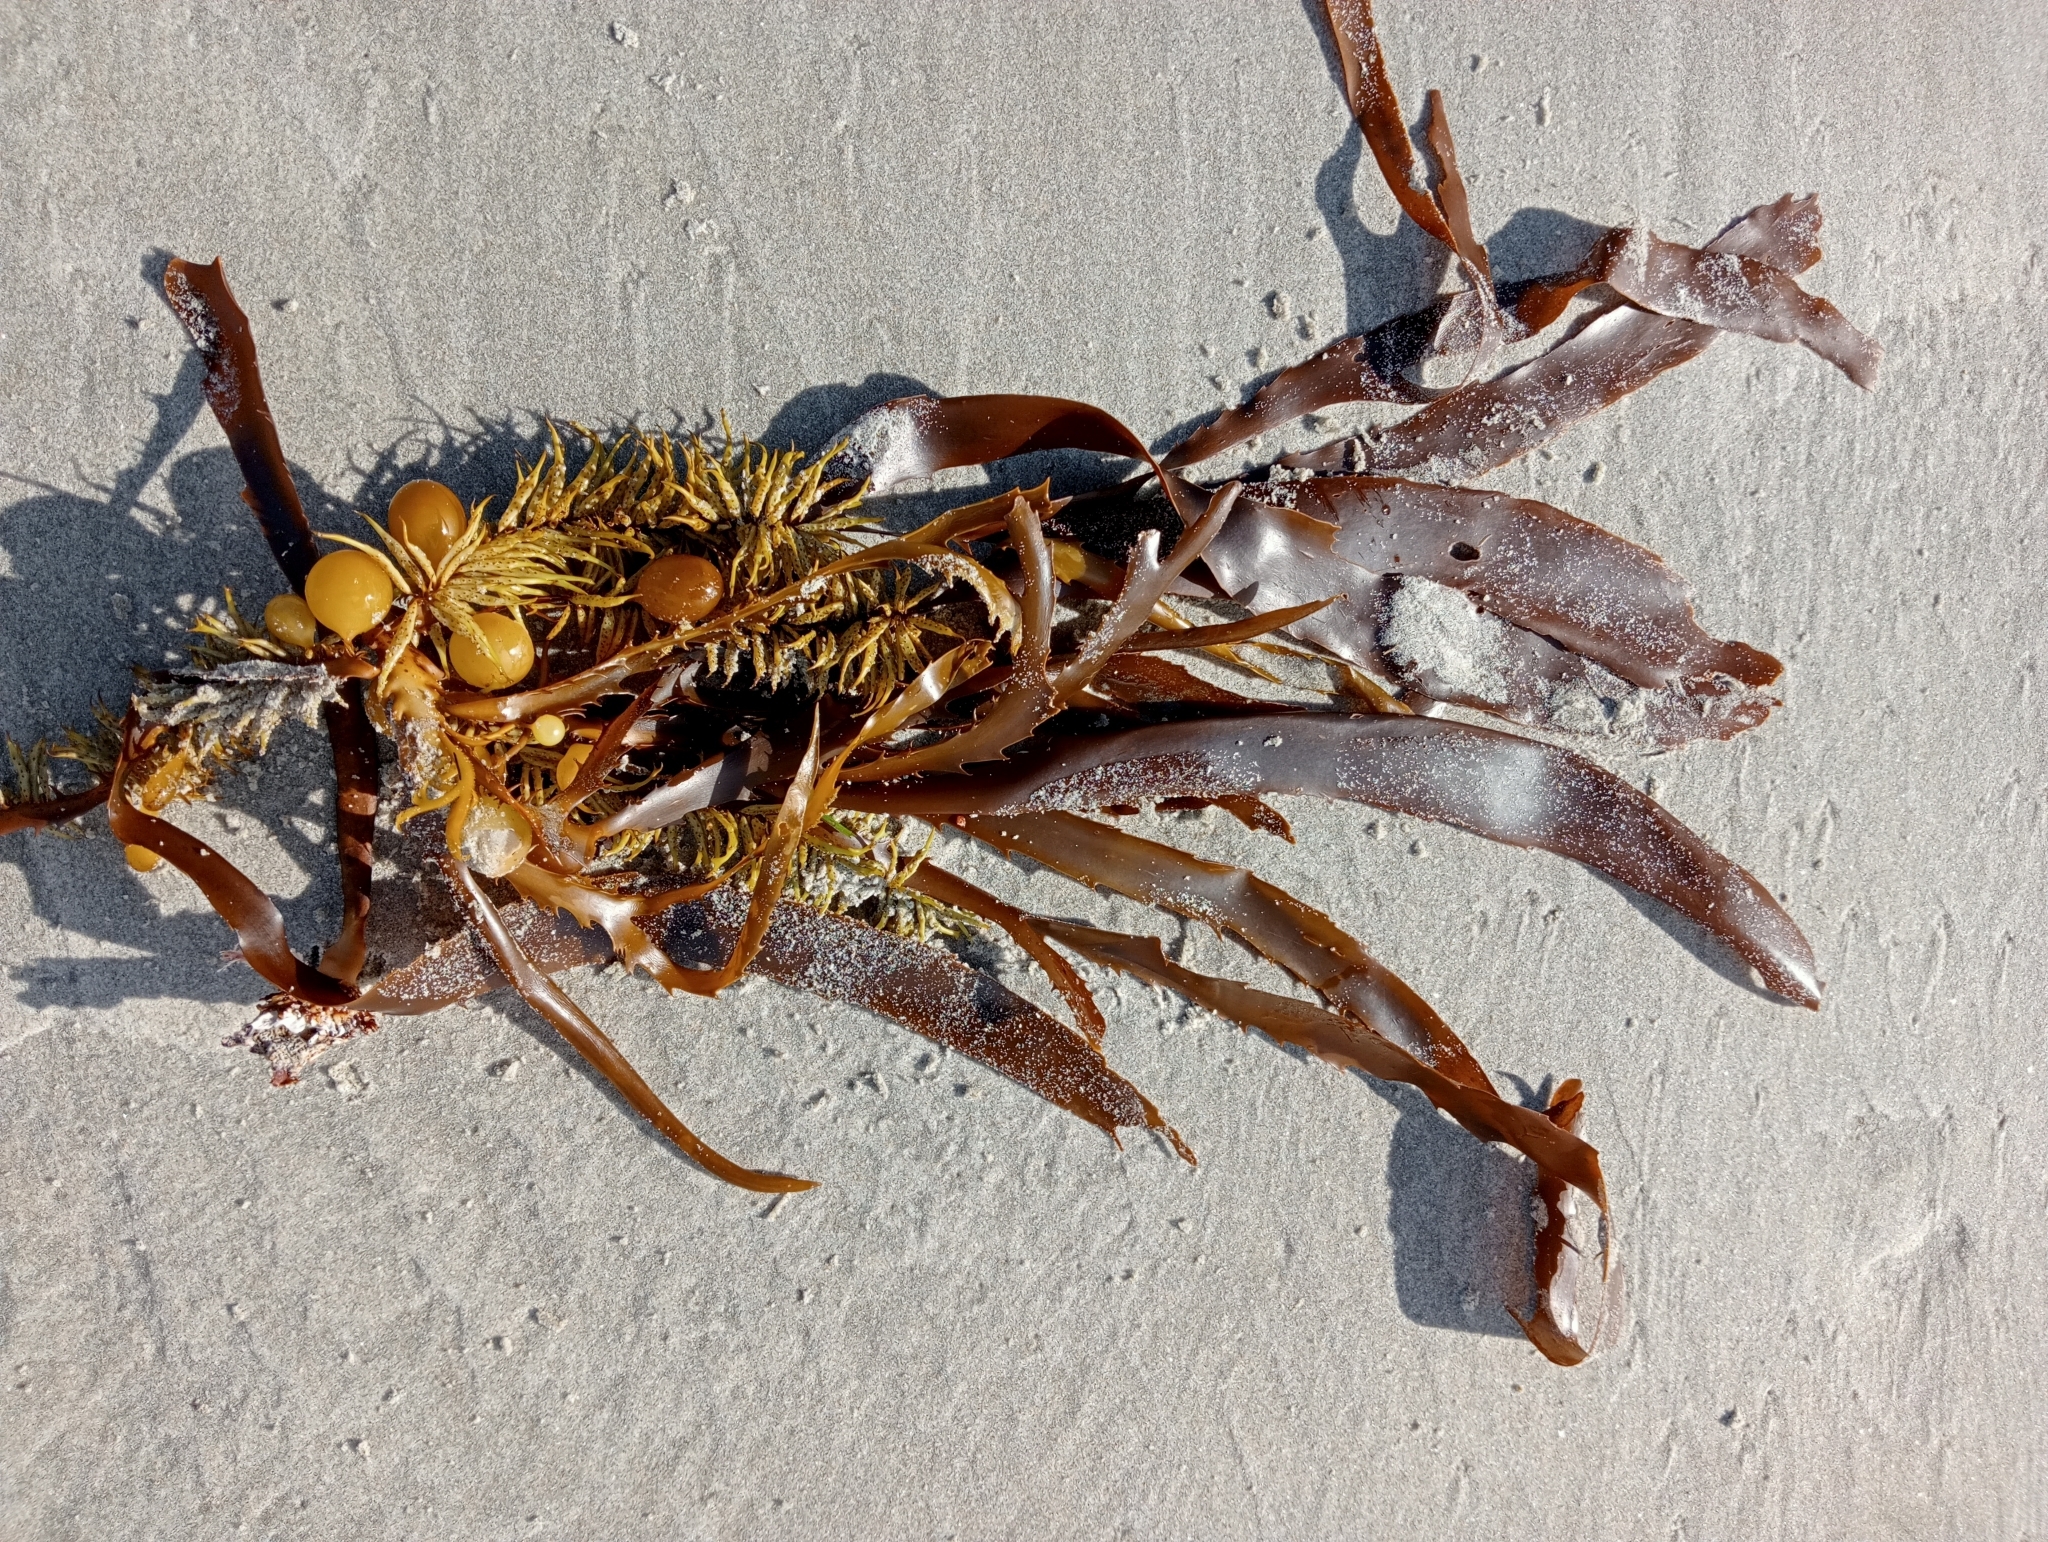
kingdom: Chromista
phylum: Ochrophyta
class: Phaeophyceae
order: Fucales
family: Seirococcaceae
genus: Marginariella
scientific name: Marginariella urvilliana
